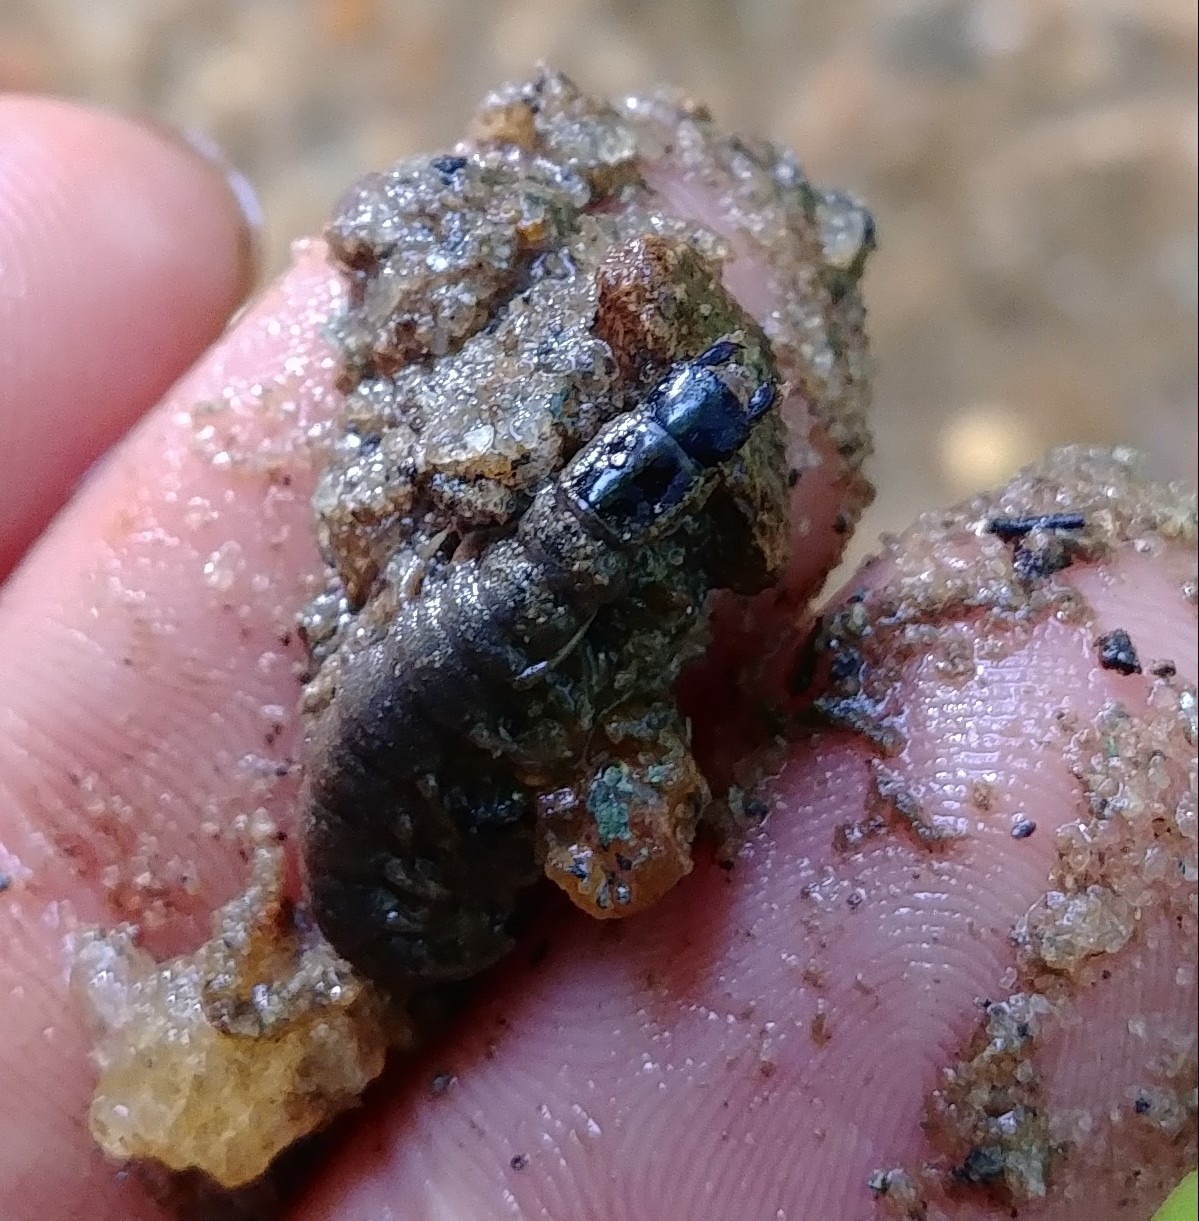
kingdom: Animalia
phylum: Arthropoda
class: Insecta
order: Megaloptera
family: Corydalidae
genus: Nigronia
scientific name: Nigronia
